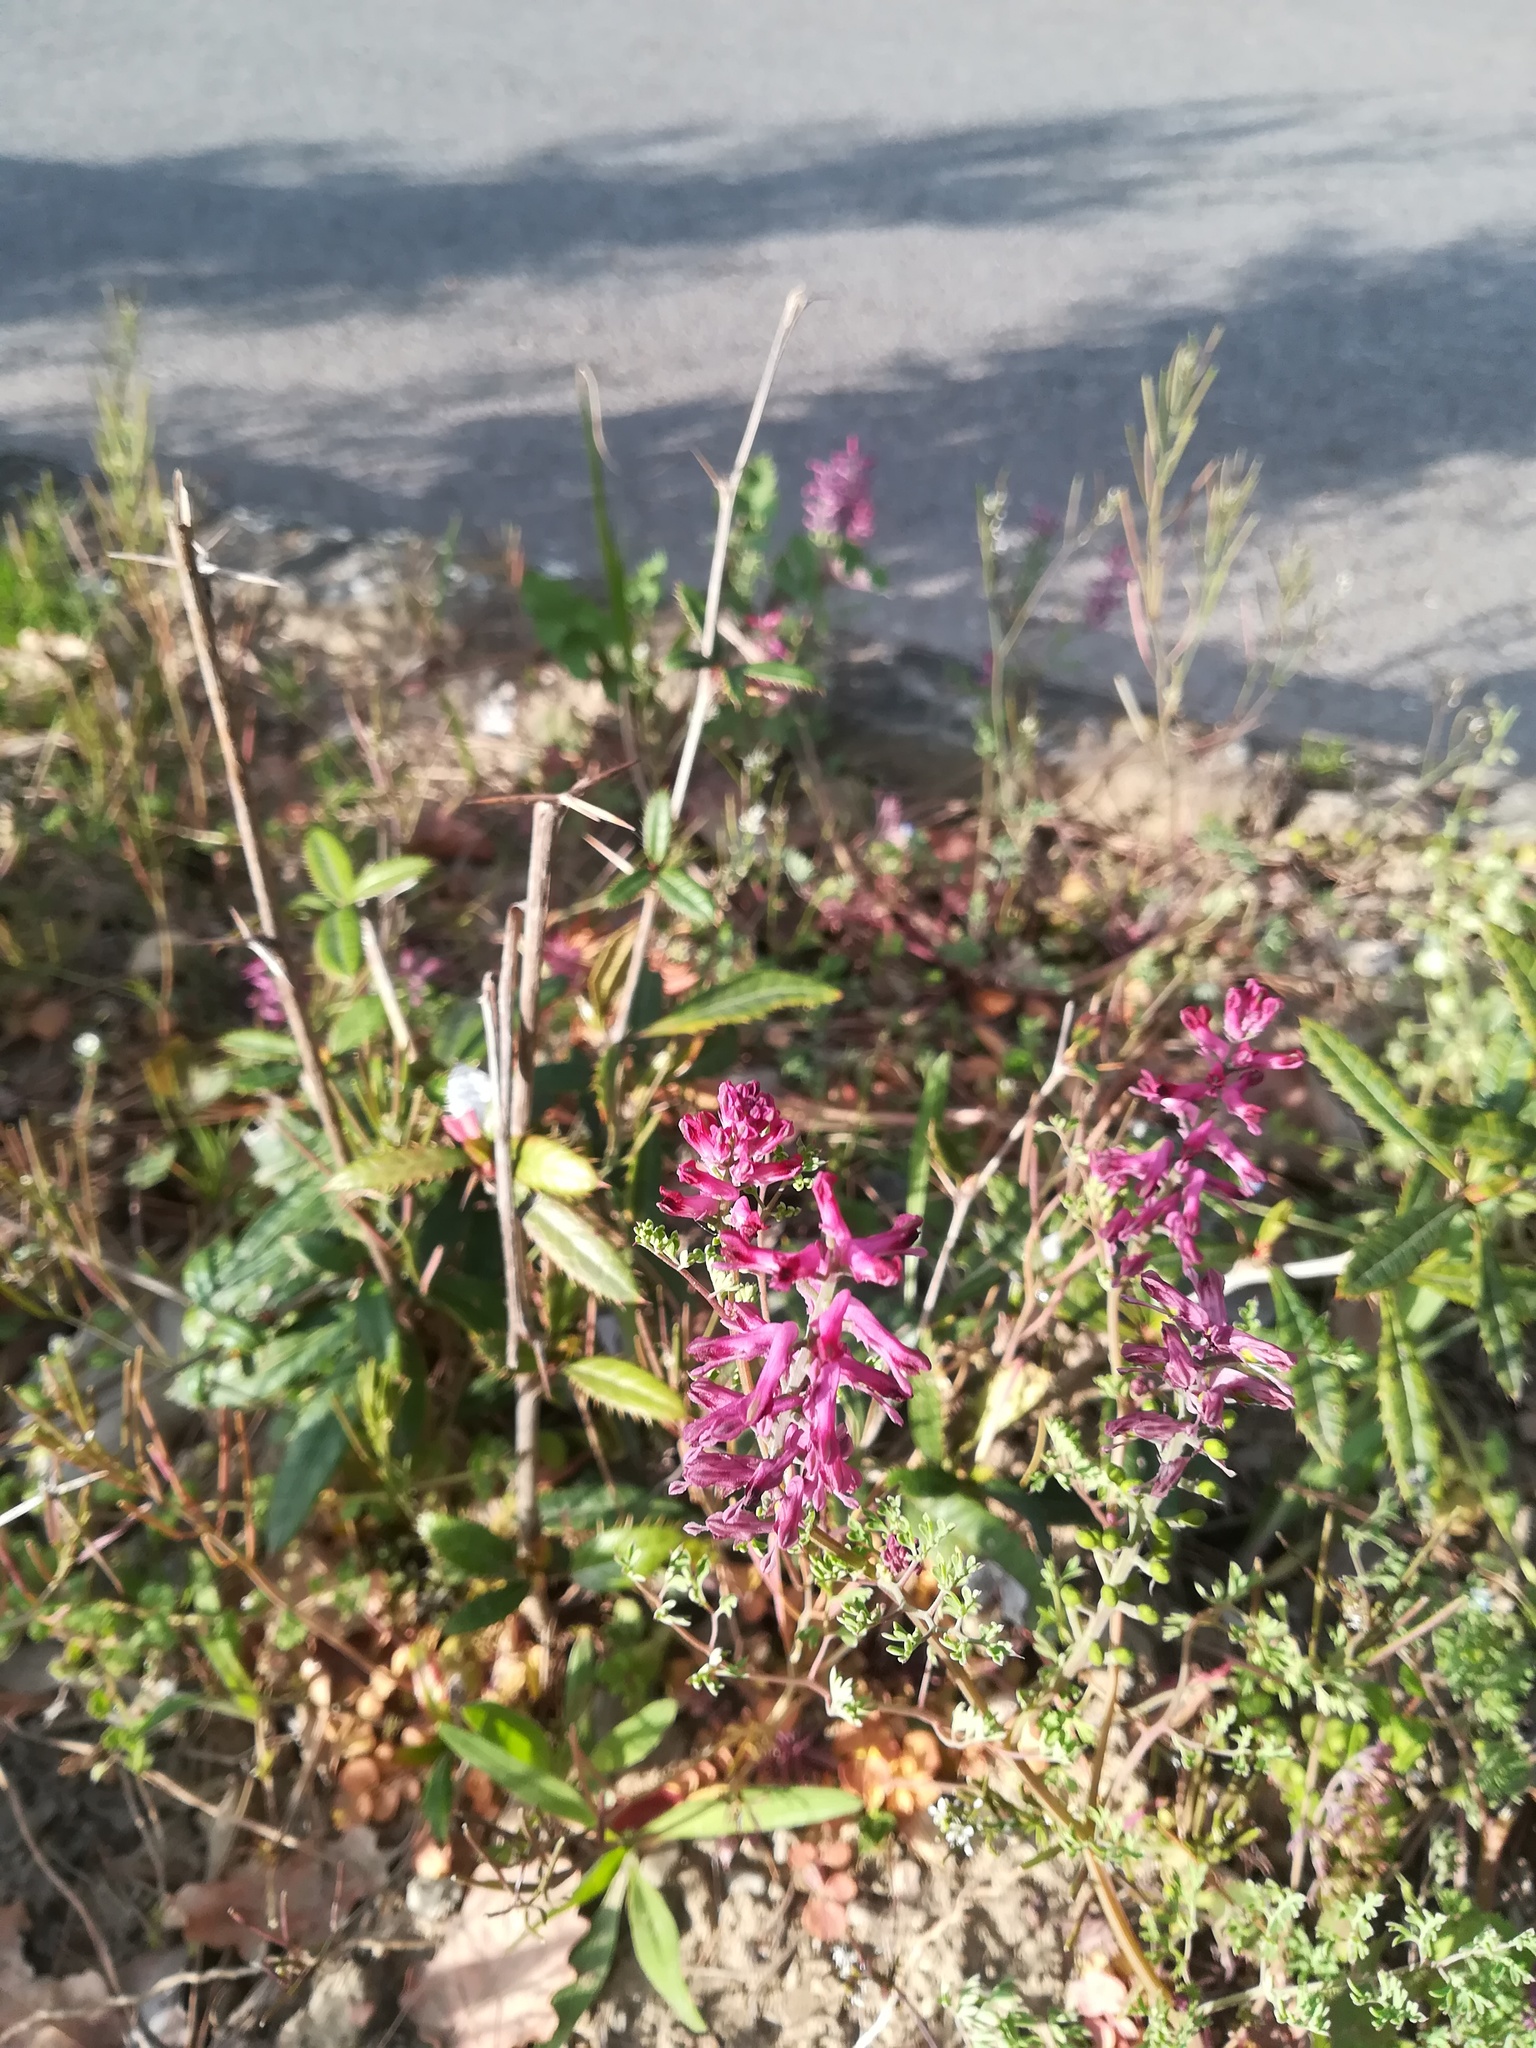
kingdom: Plantae
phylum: Tracheophyta
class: Magnoliopsida
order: Ranunculales
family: Papaveraceae
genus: Fumaria
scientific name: Fumaria officinalis
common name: Common fumitory
